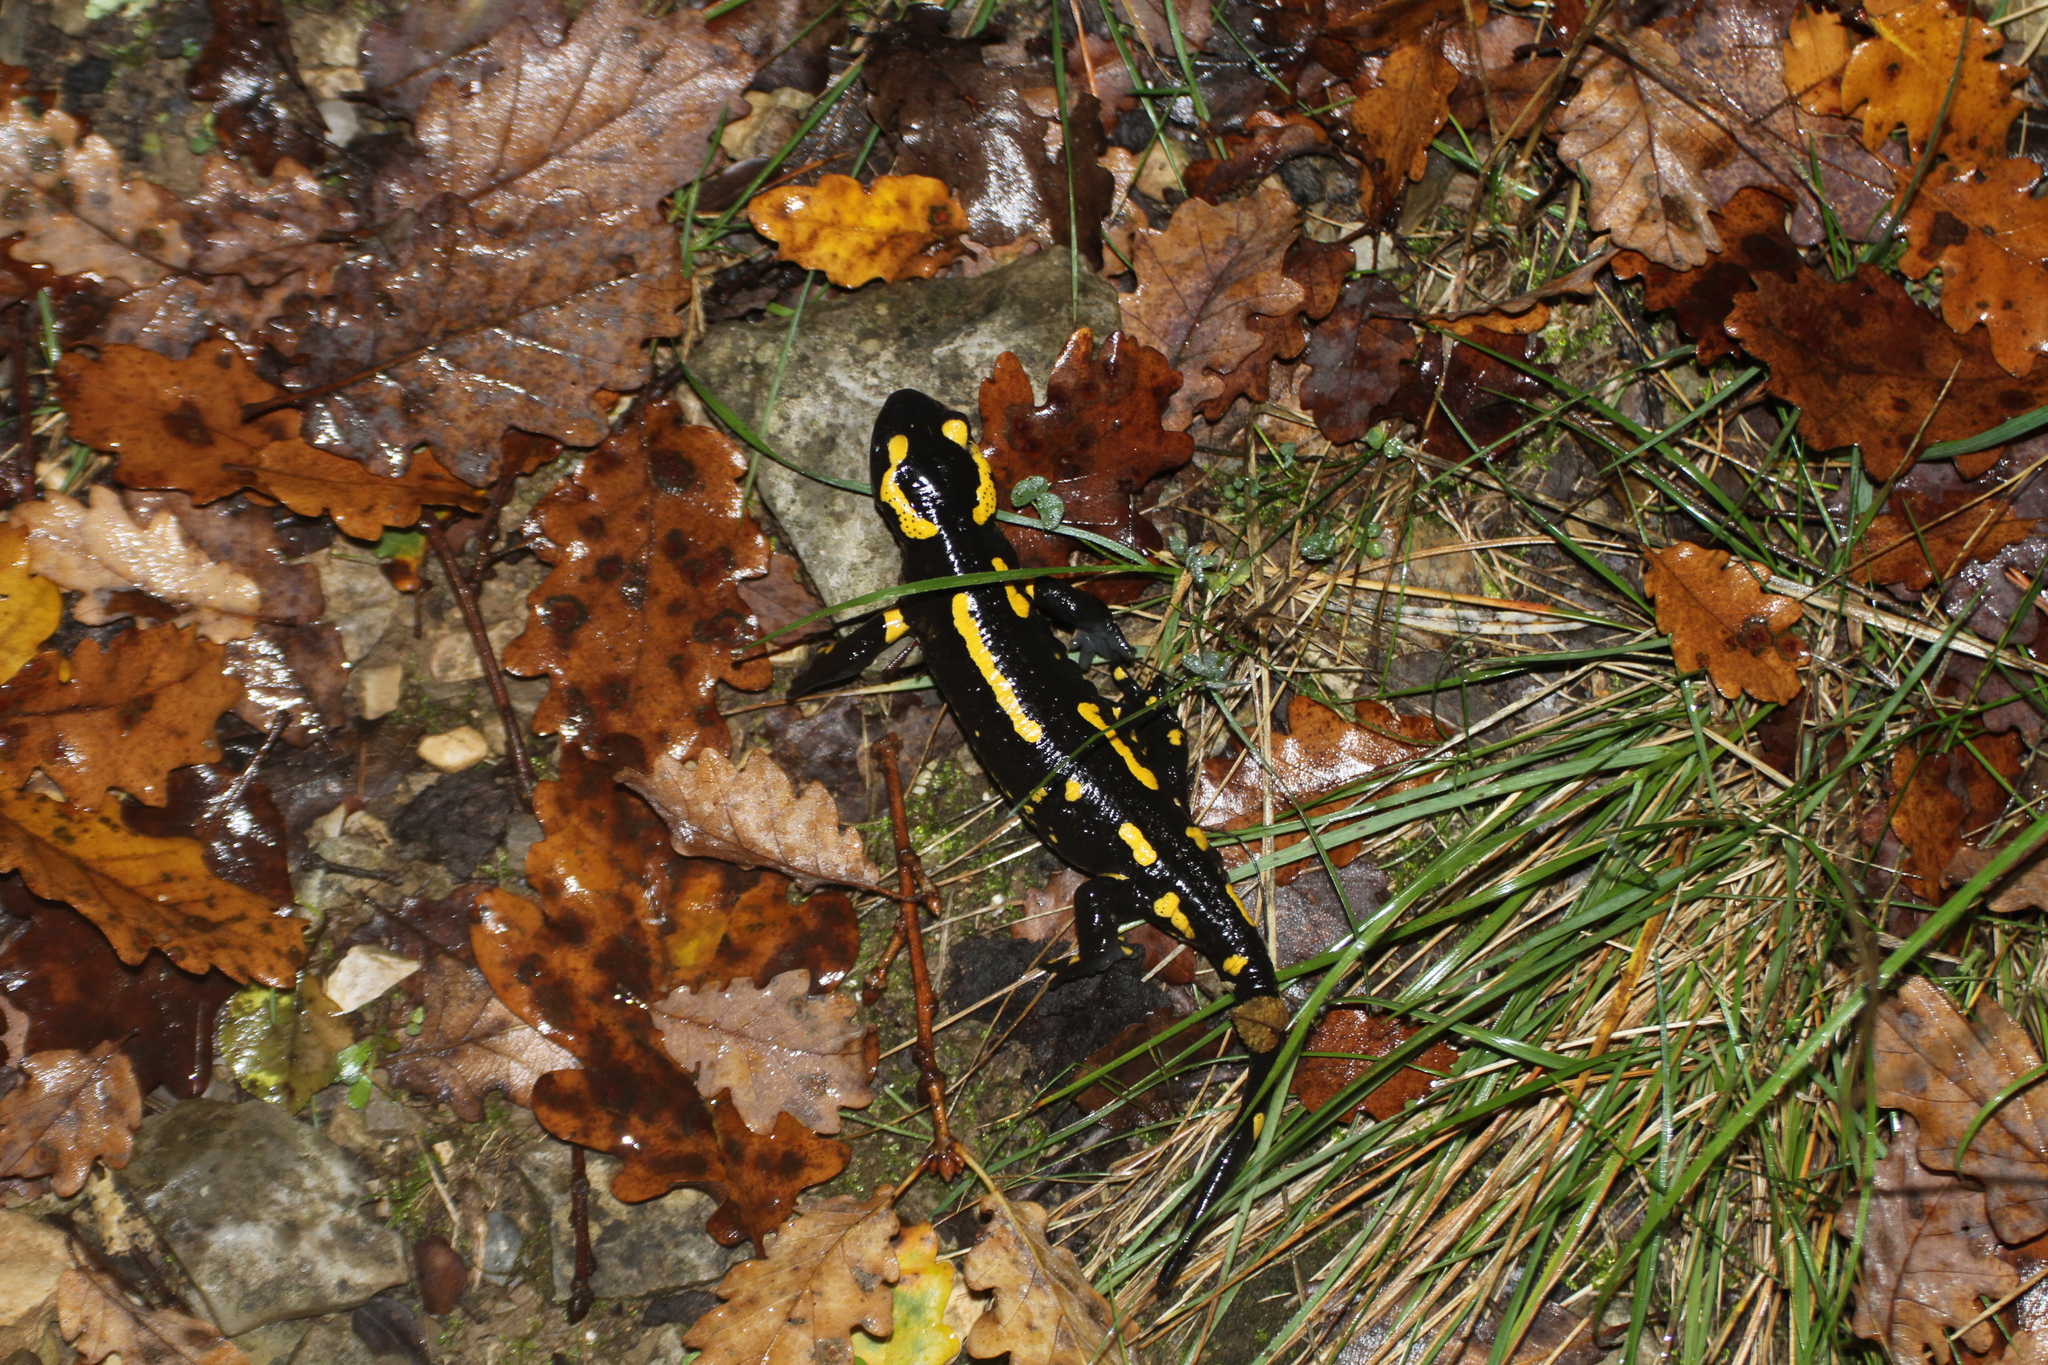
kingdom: Animalia
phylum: Chordata
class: Amphibia
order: Caudata
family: Salamandridae
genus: Salamandra
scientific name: Salamandra salamandra
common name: Fire salamander
